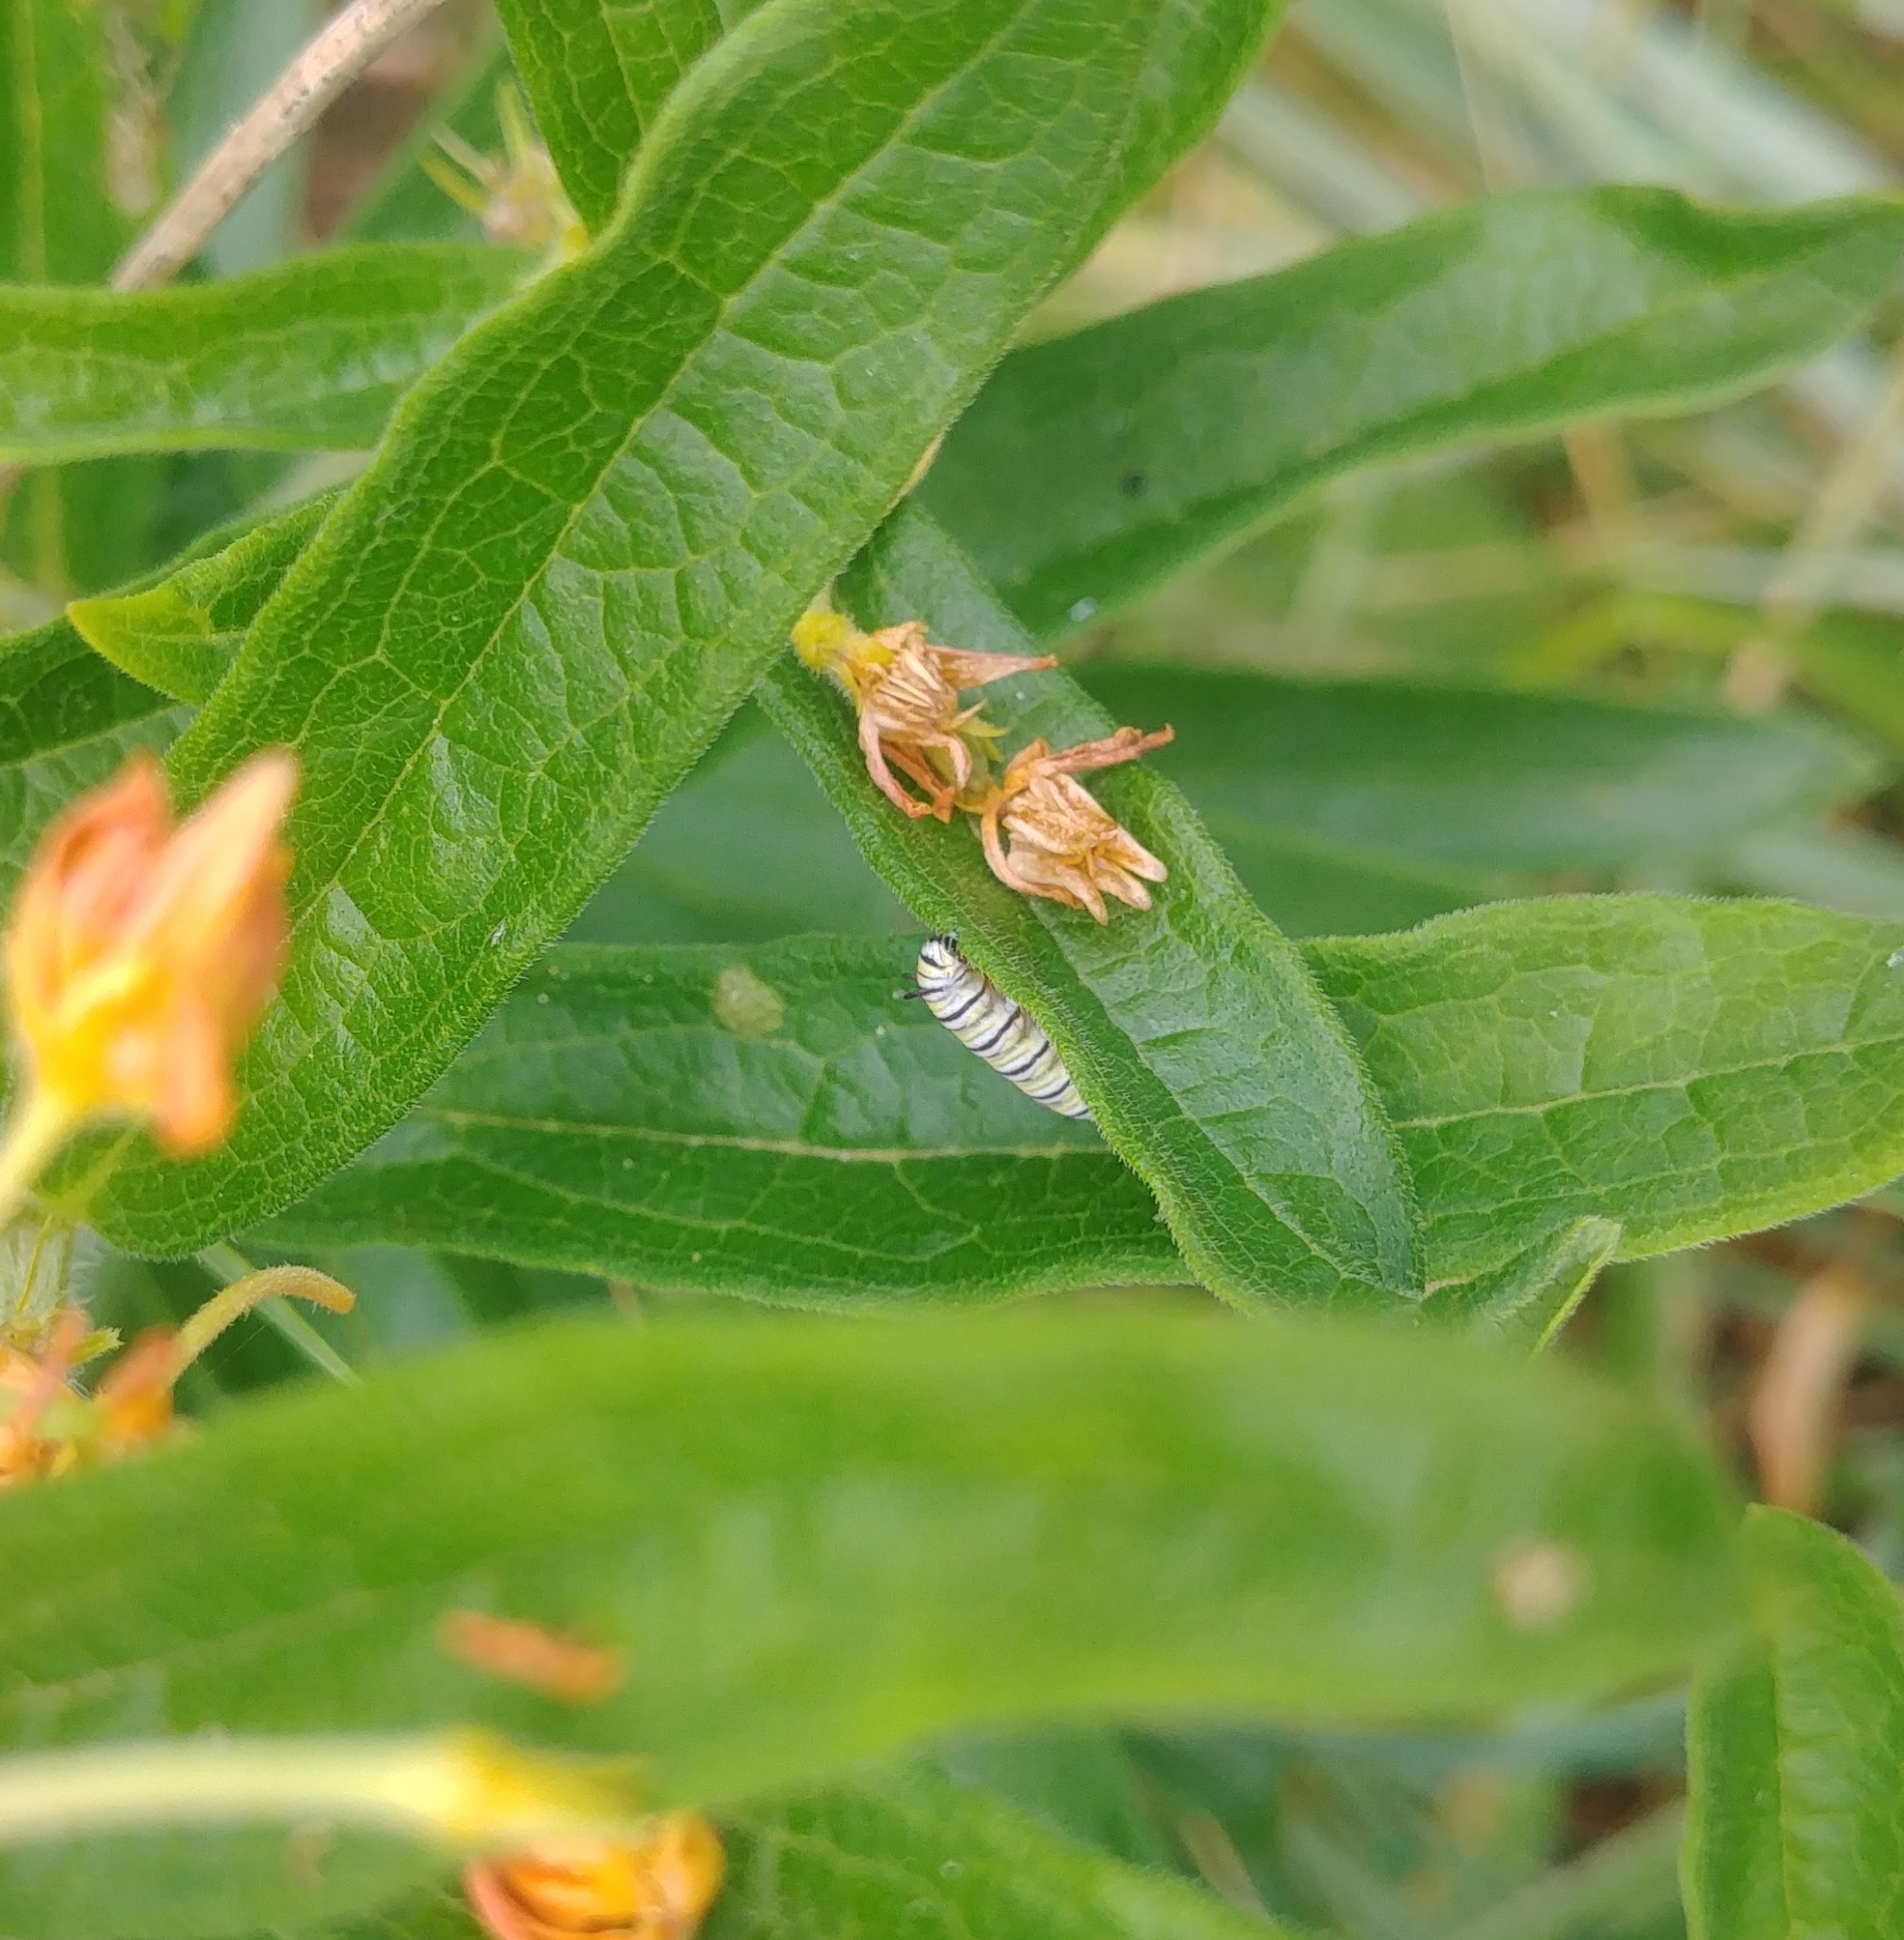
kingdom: Animalia
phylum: Arthropoda
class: Insecta
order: Lepidoptera
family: Nymphalidae
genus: Danaus
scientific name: Danaus plexippus
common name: Monarch
